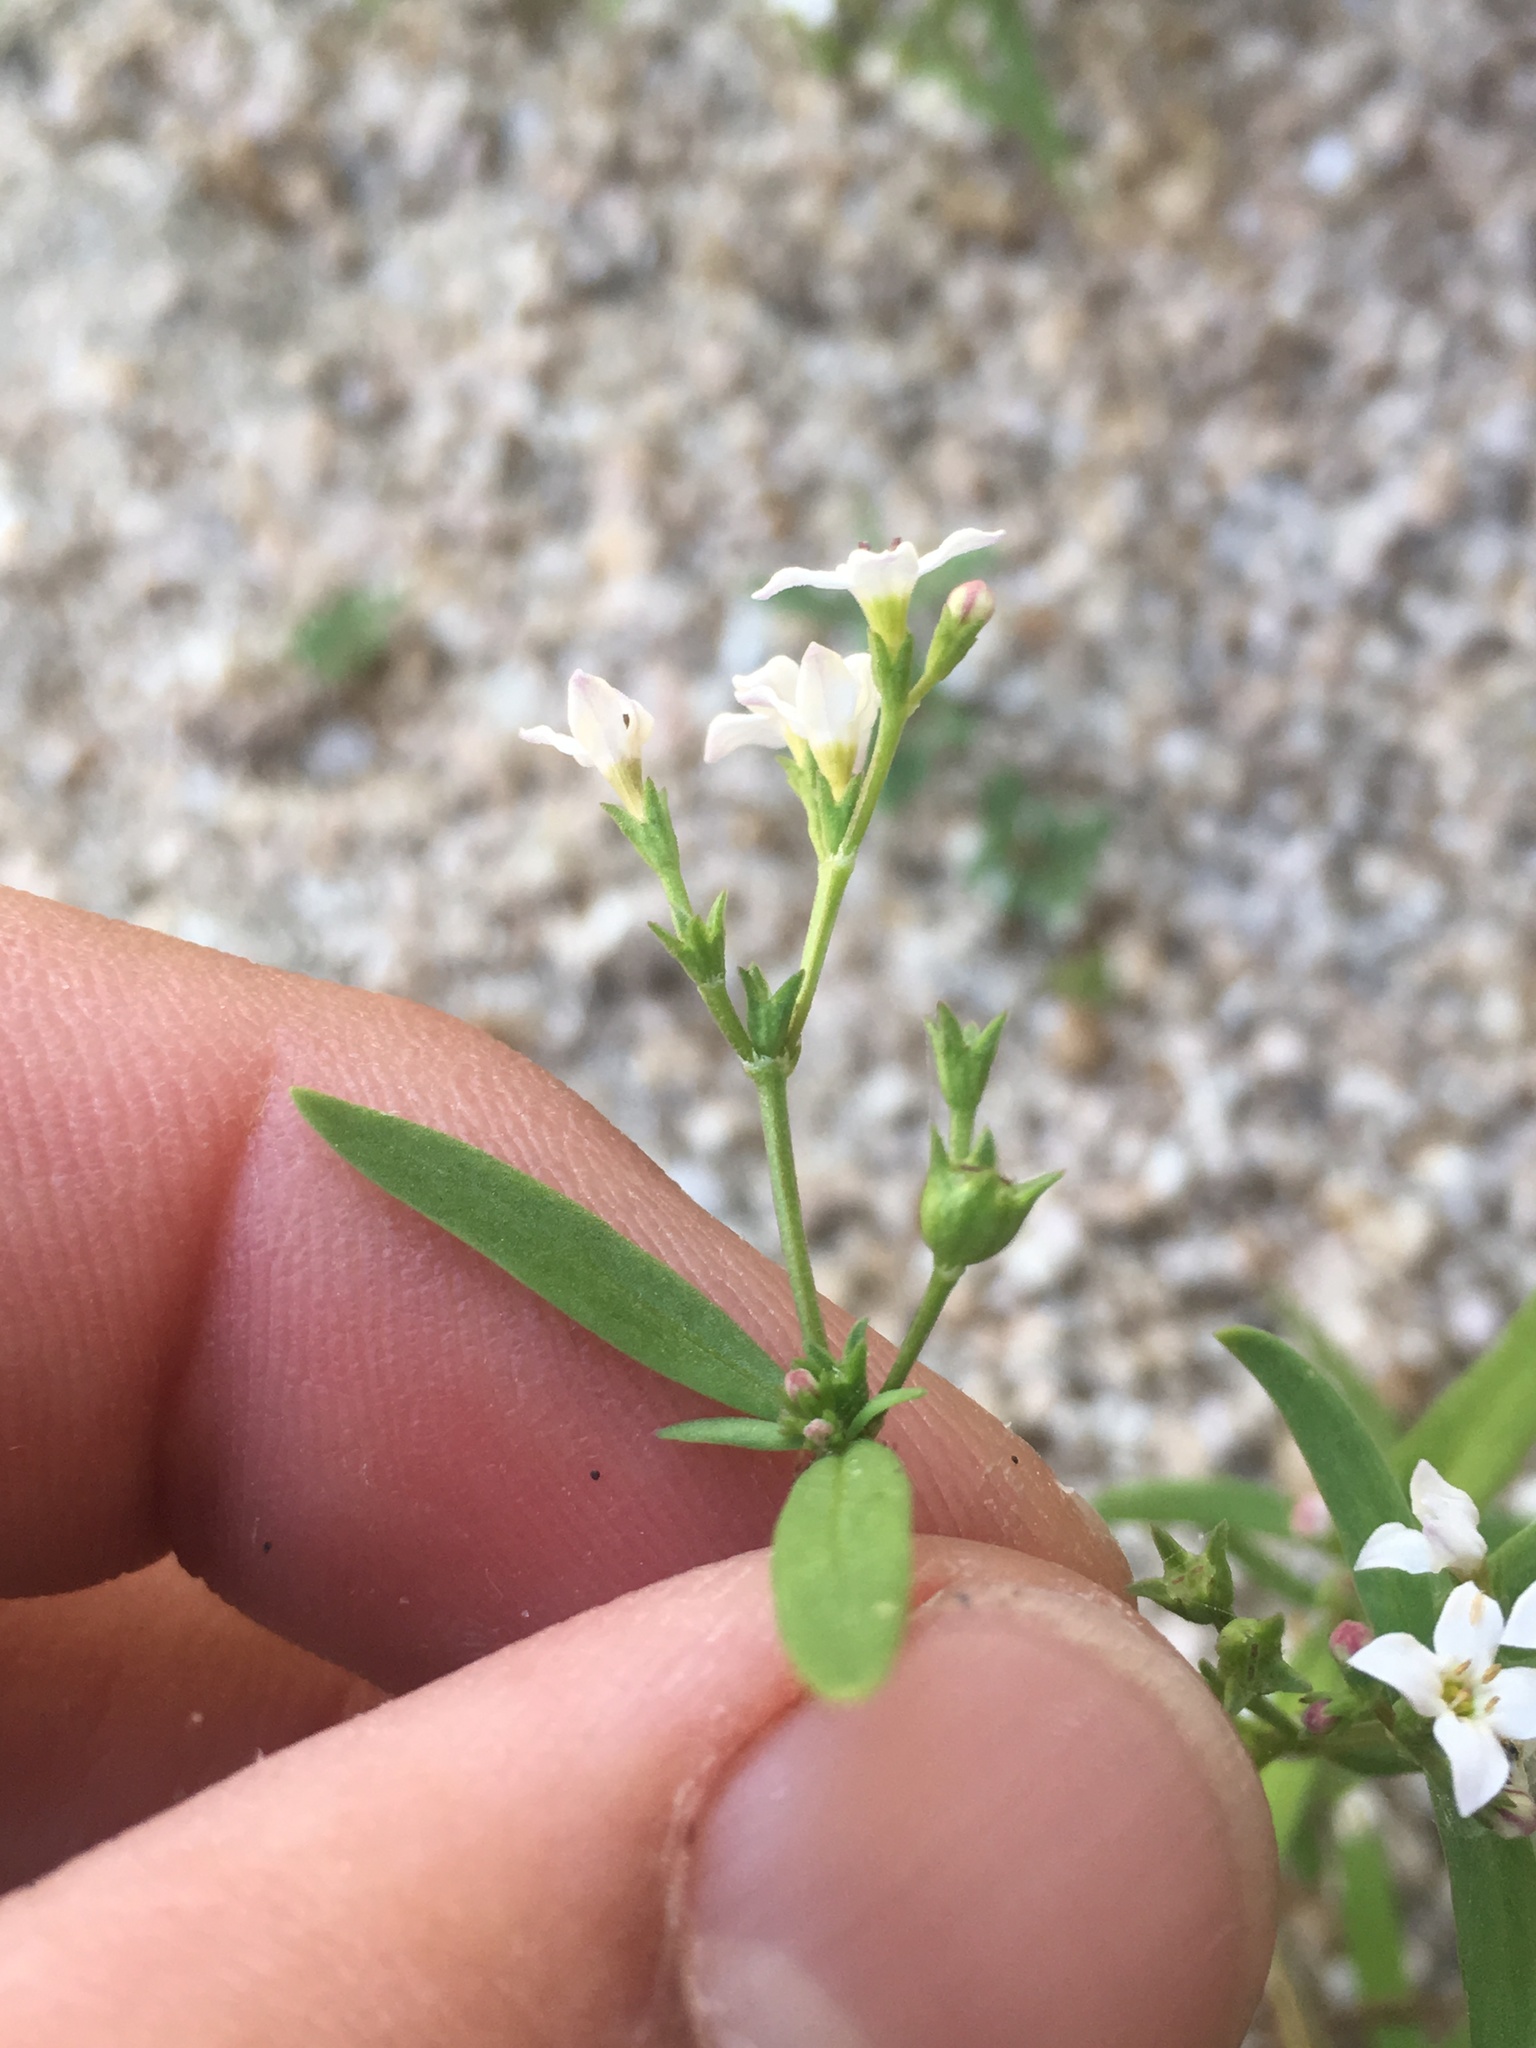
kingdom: Plantae
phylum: Tracheophyta
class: Magnoliopsida
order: Gentianales
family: Rubiaceae
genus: Stenotis
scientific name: Stenotis arenaria
